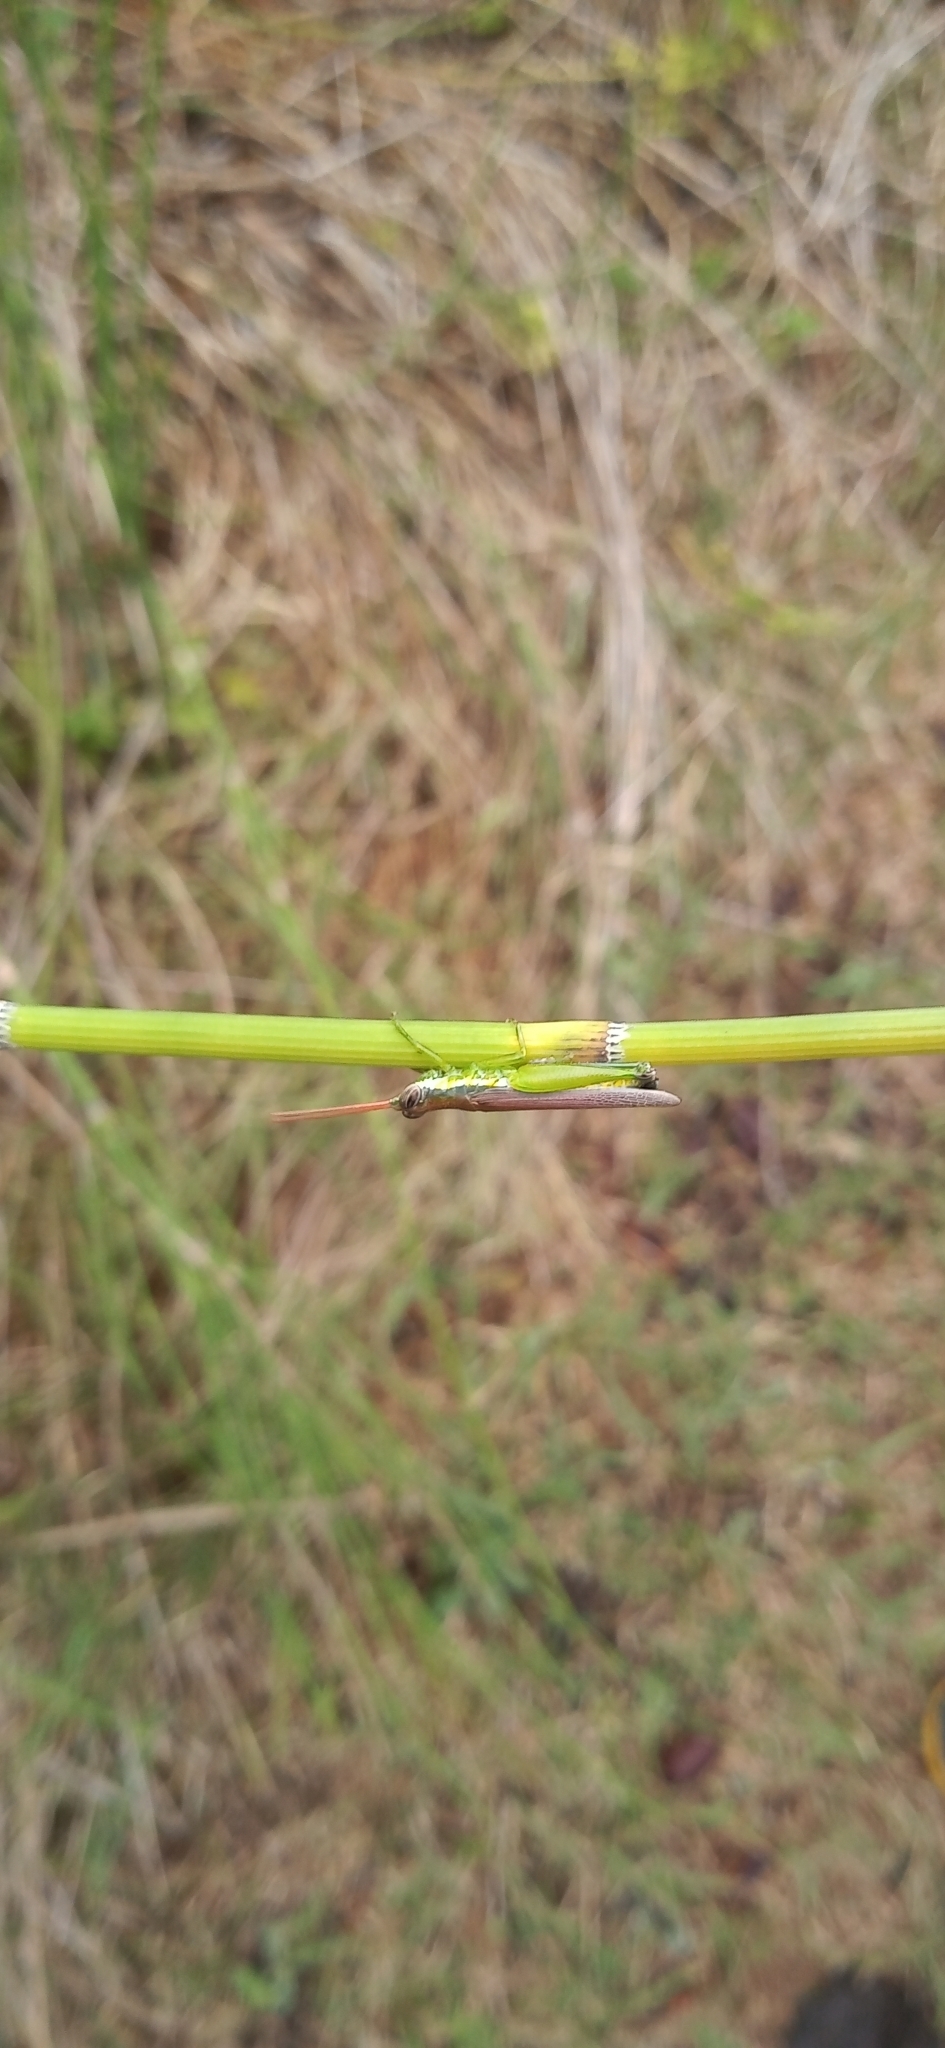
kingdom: Animalia
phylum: Arthropoda
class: Insecta
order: Orthoptera
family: Acrididae
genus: Stenopola
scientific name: Stenopola puncticeps
